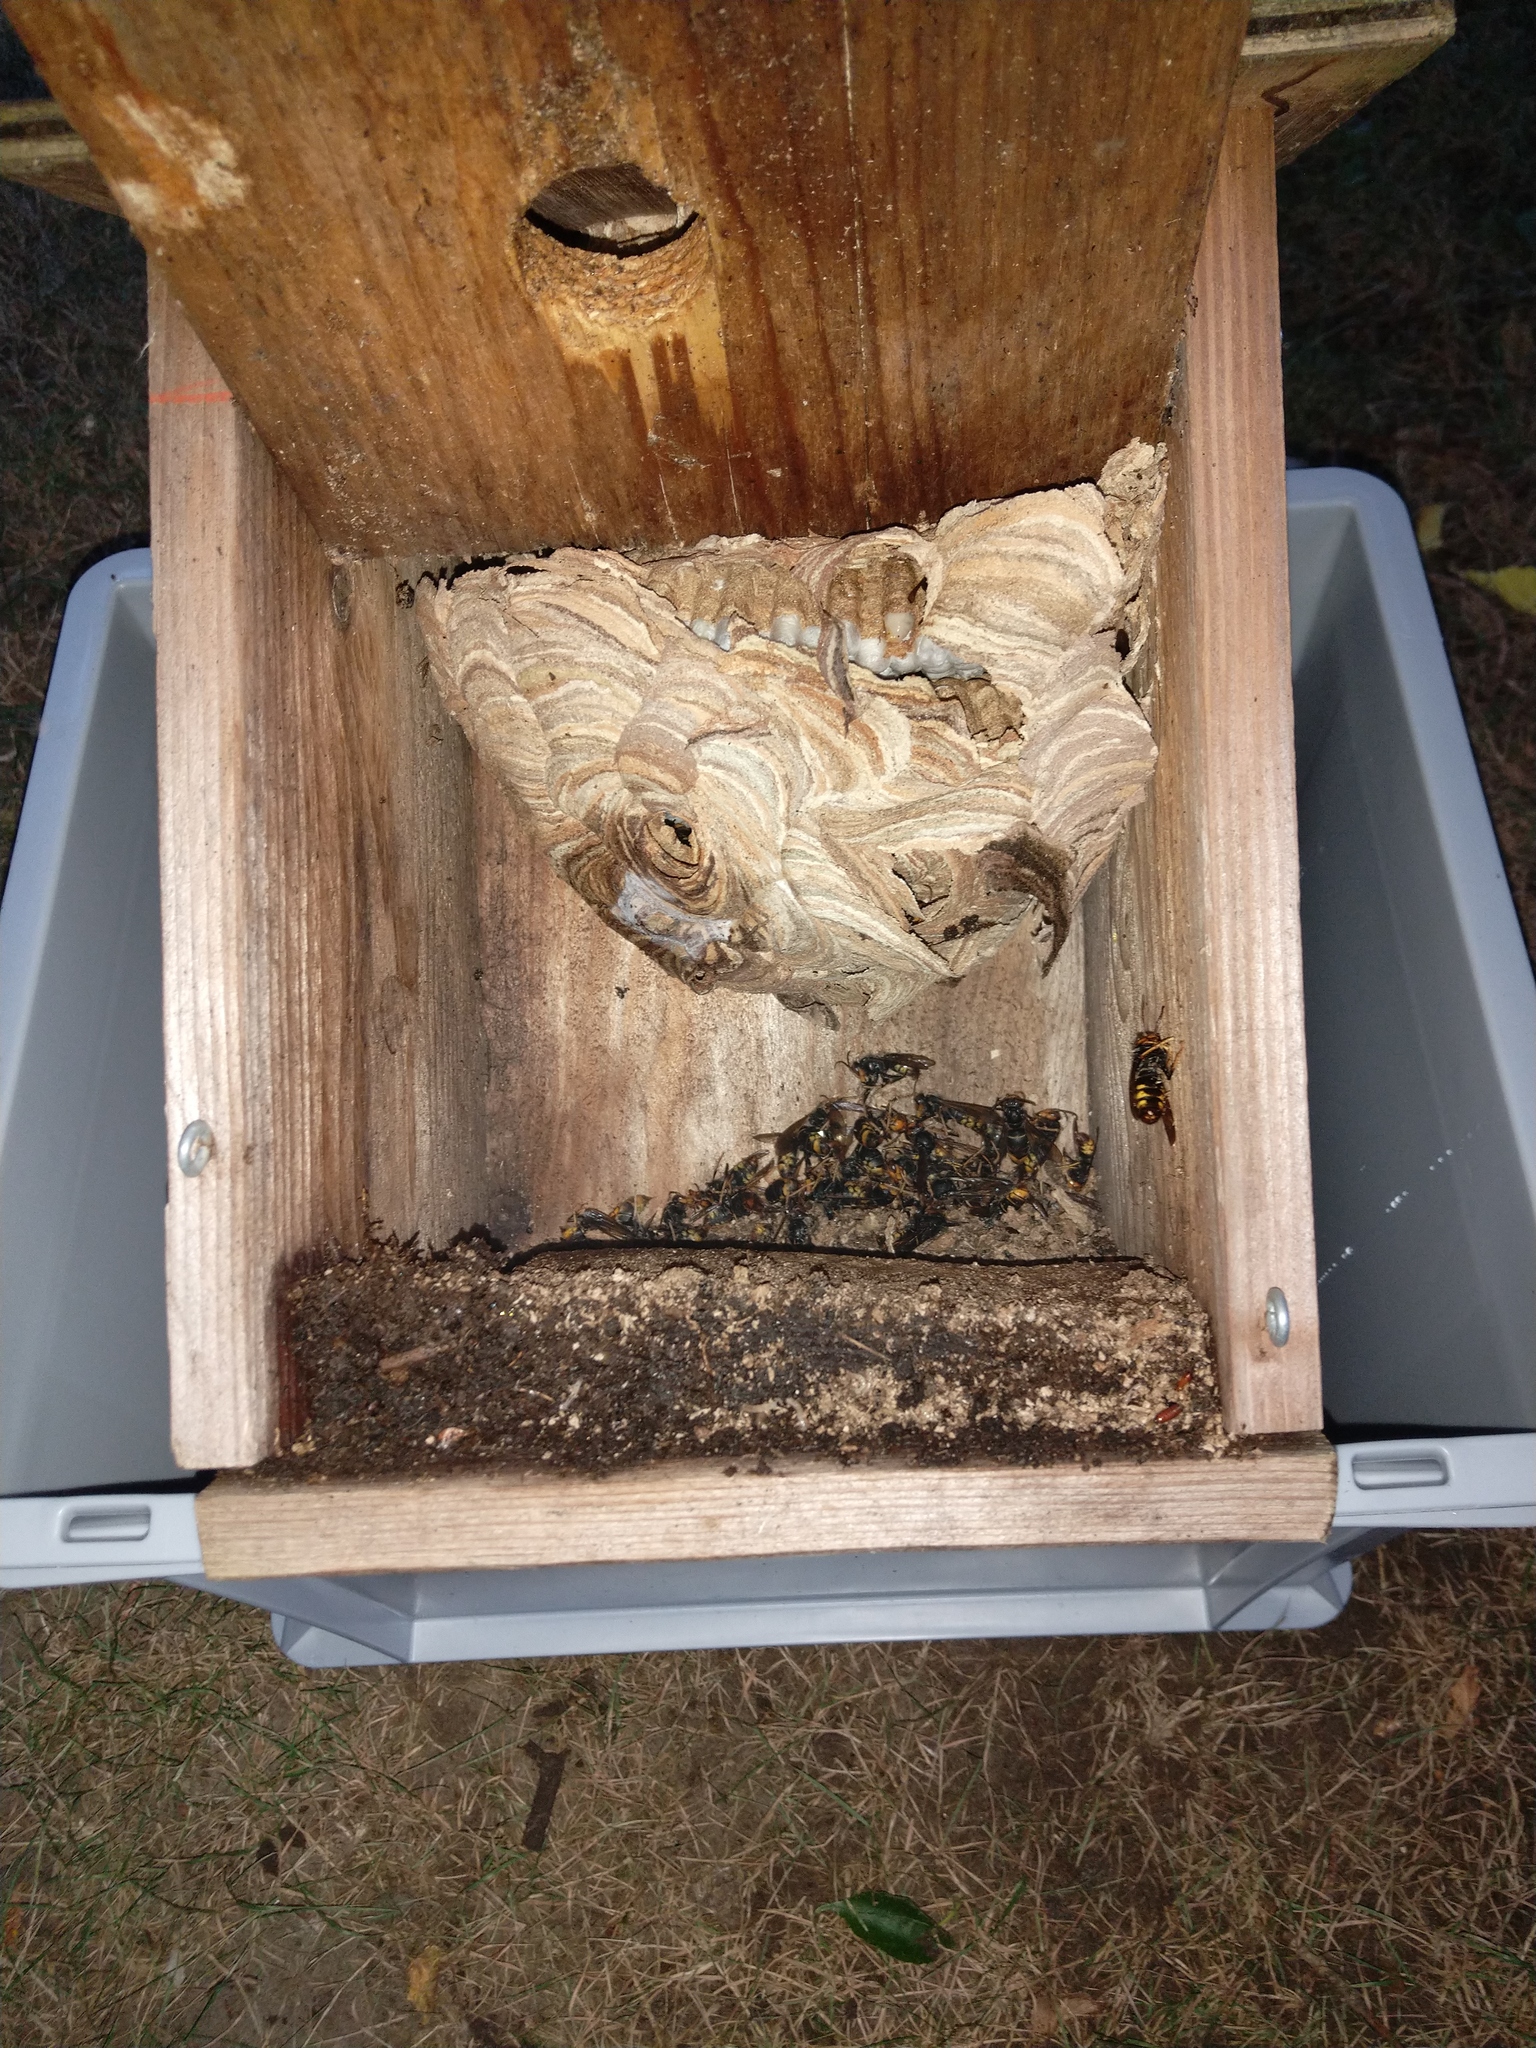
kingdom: Animalia
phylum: Arthropoda
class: Insecta
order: Hymenoptera
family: Vespidae
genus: Vespa
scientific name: Vespa velutina
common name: Asian hornet
